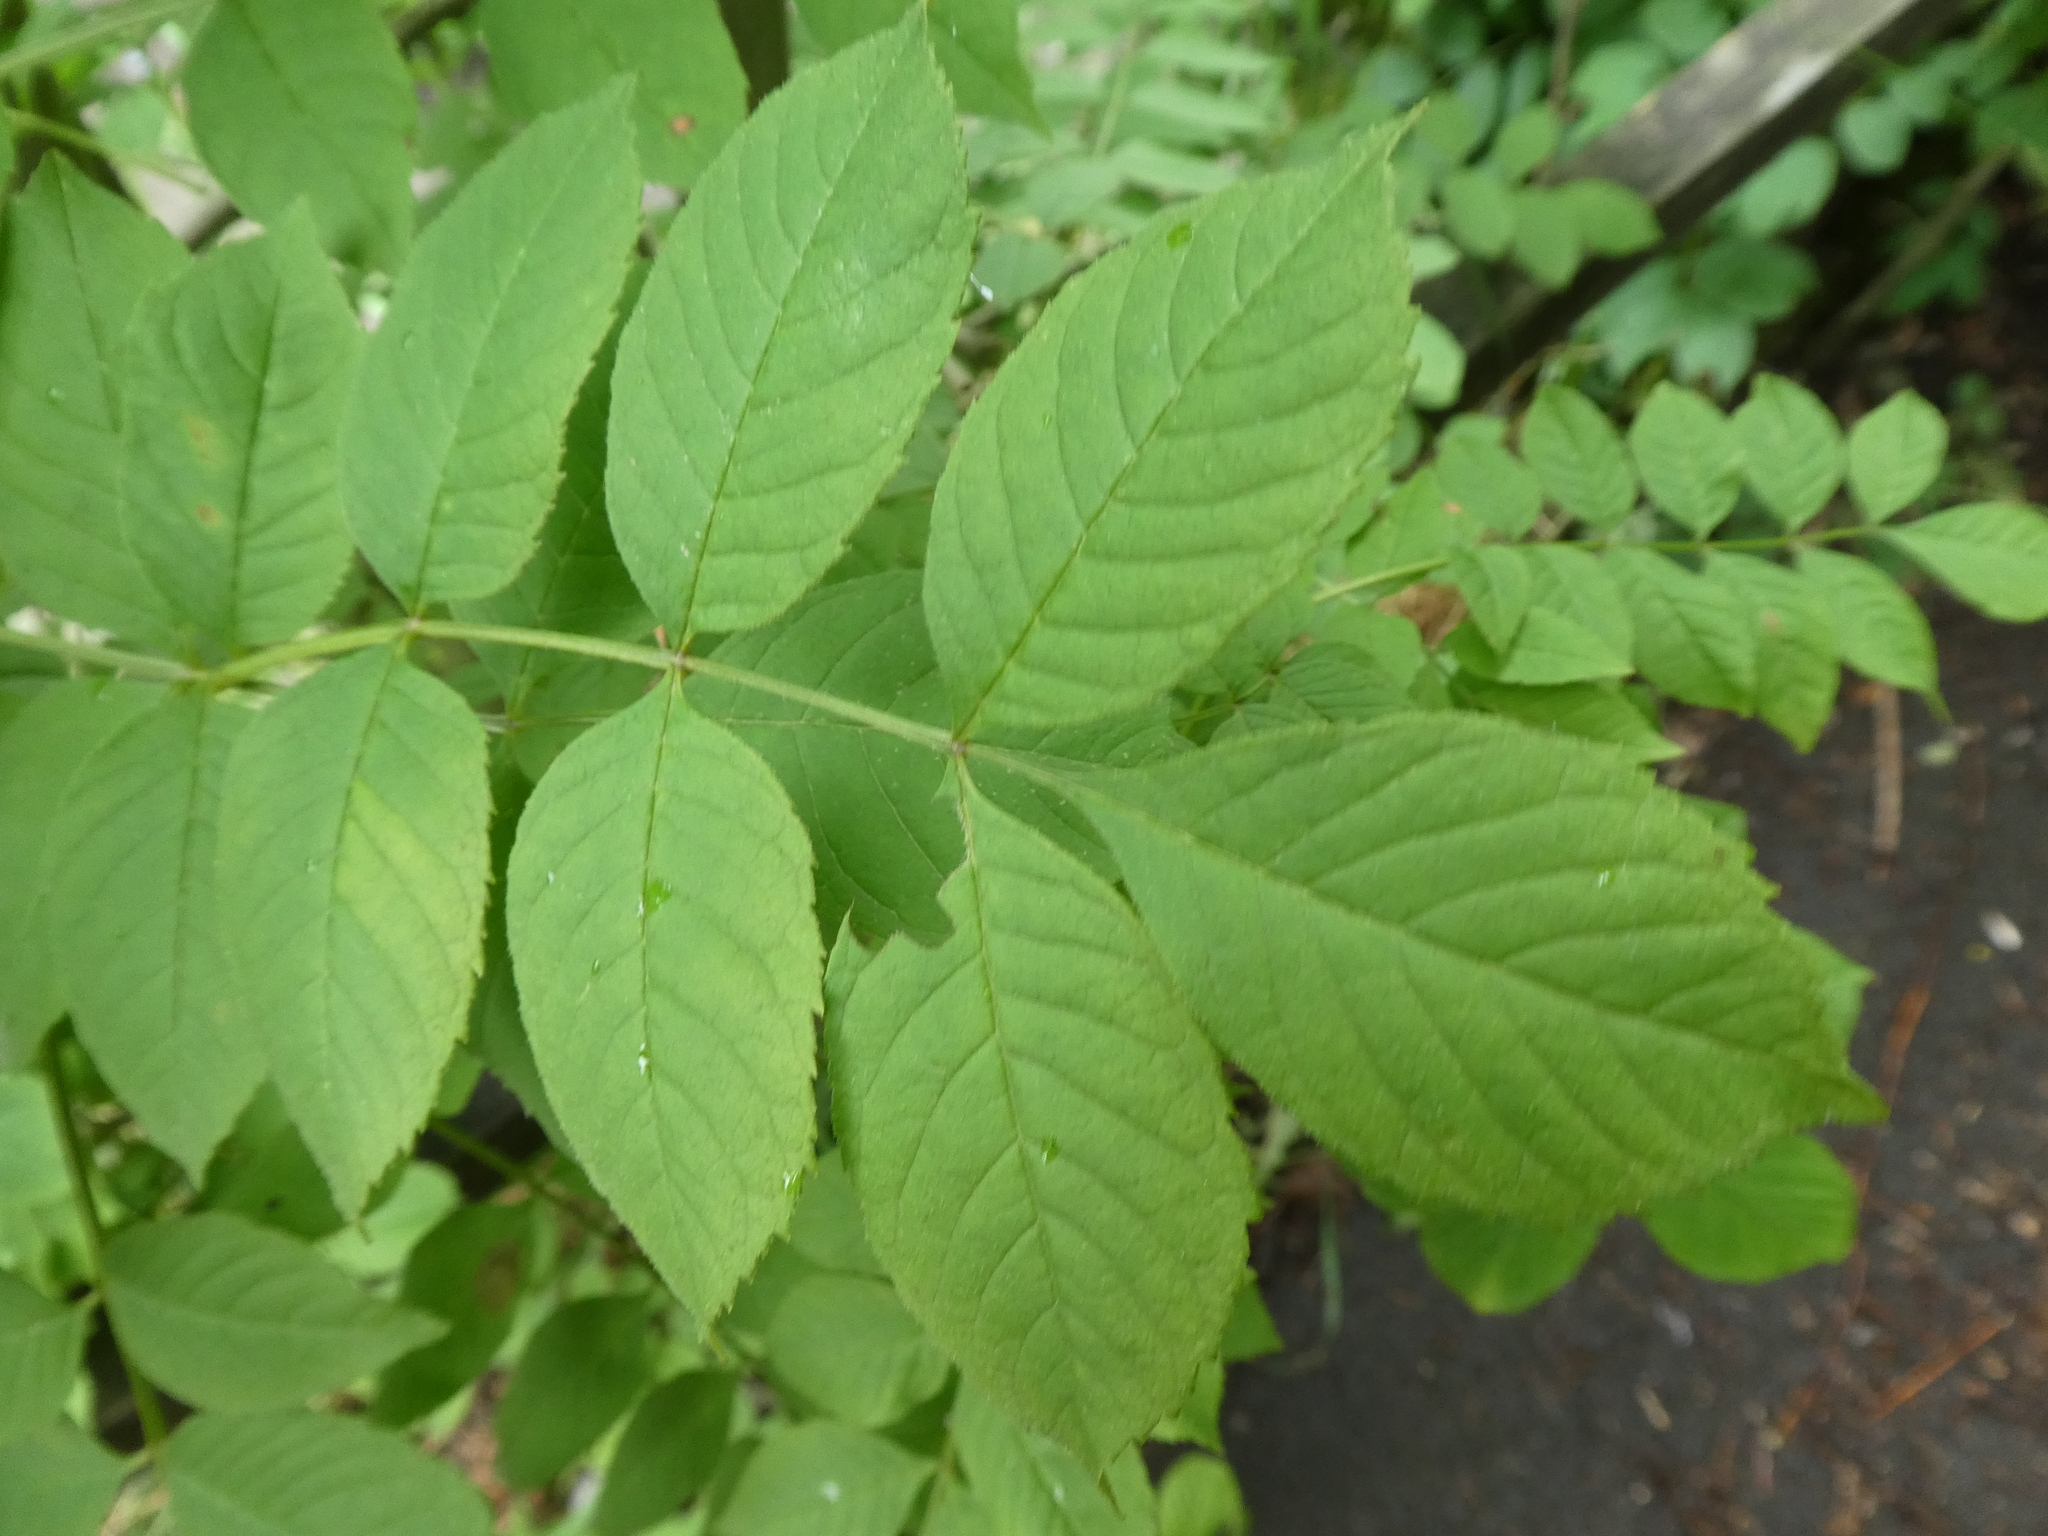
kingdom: Plantae
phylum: Tracheophyta
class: Magnoliopsida
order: Lamiales
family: Oleaceae
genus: Fraxinus
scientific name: Fraxinus excelsior
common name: European ash
